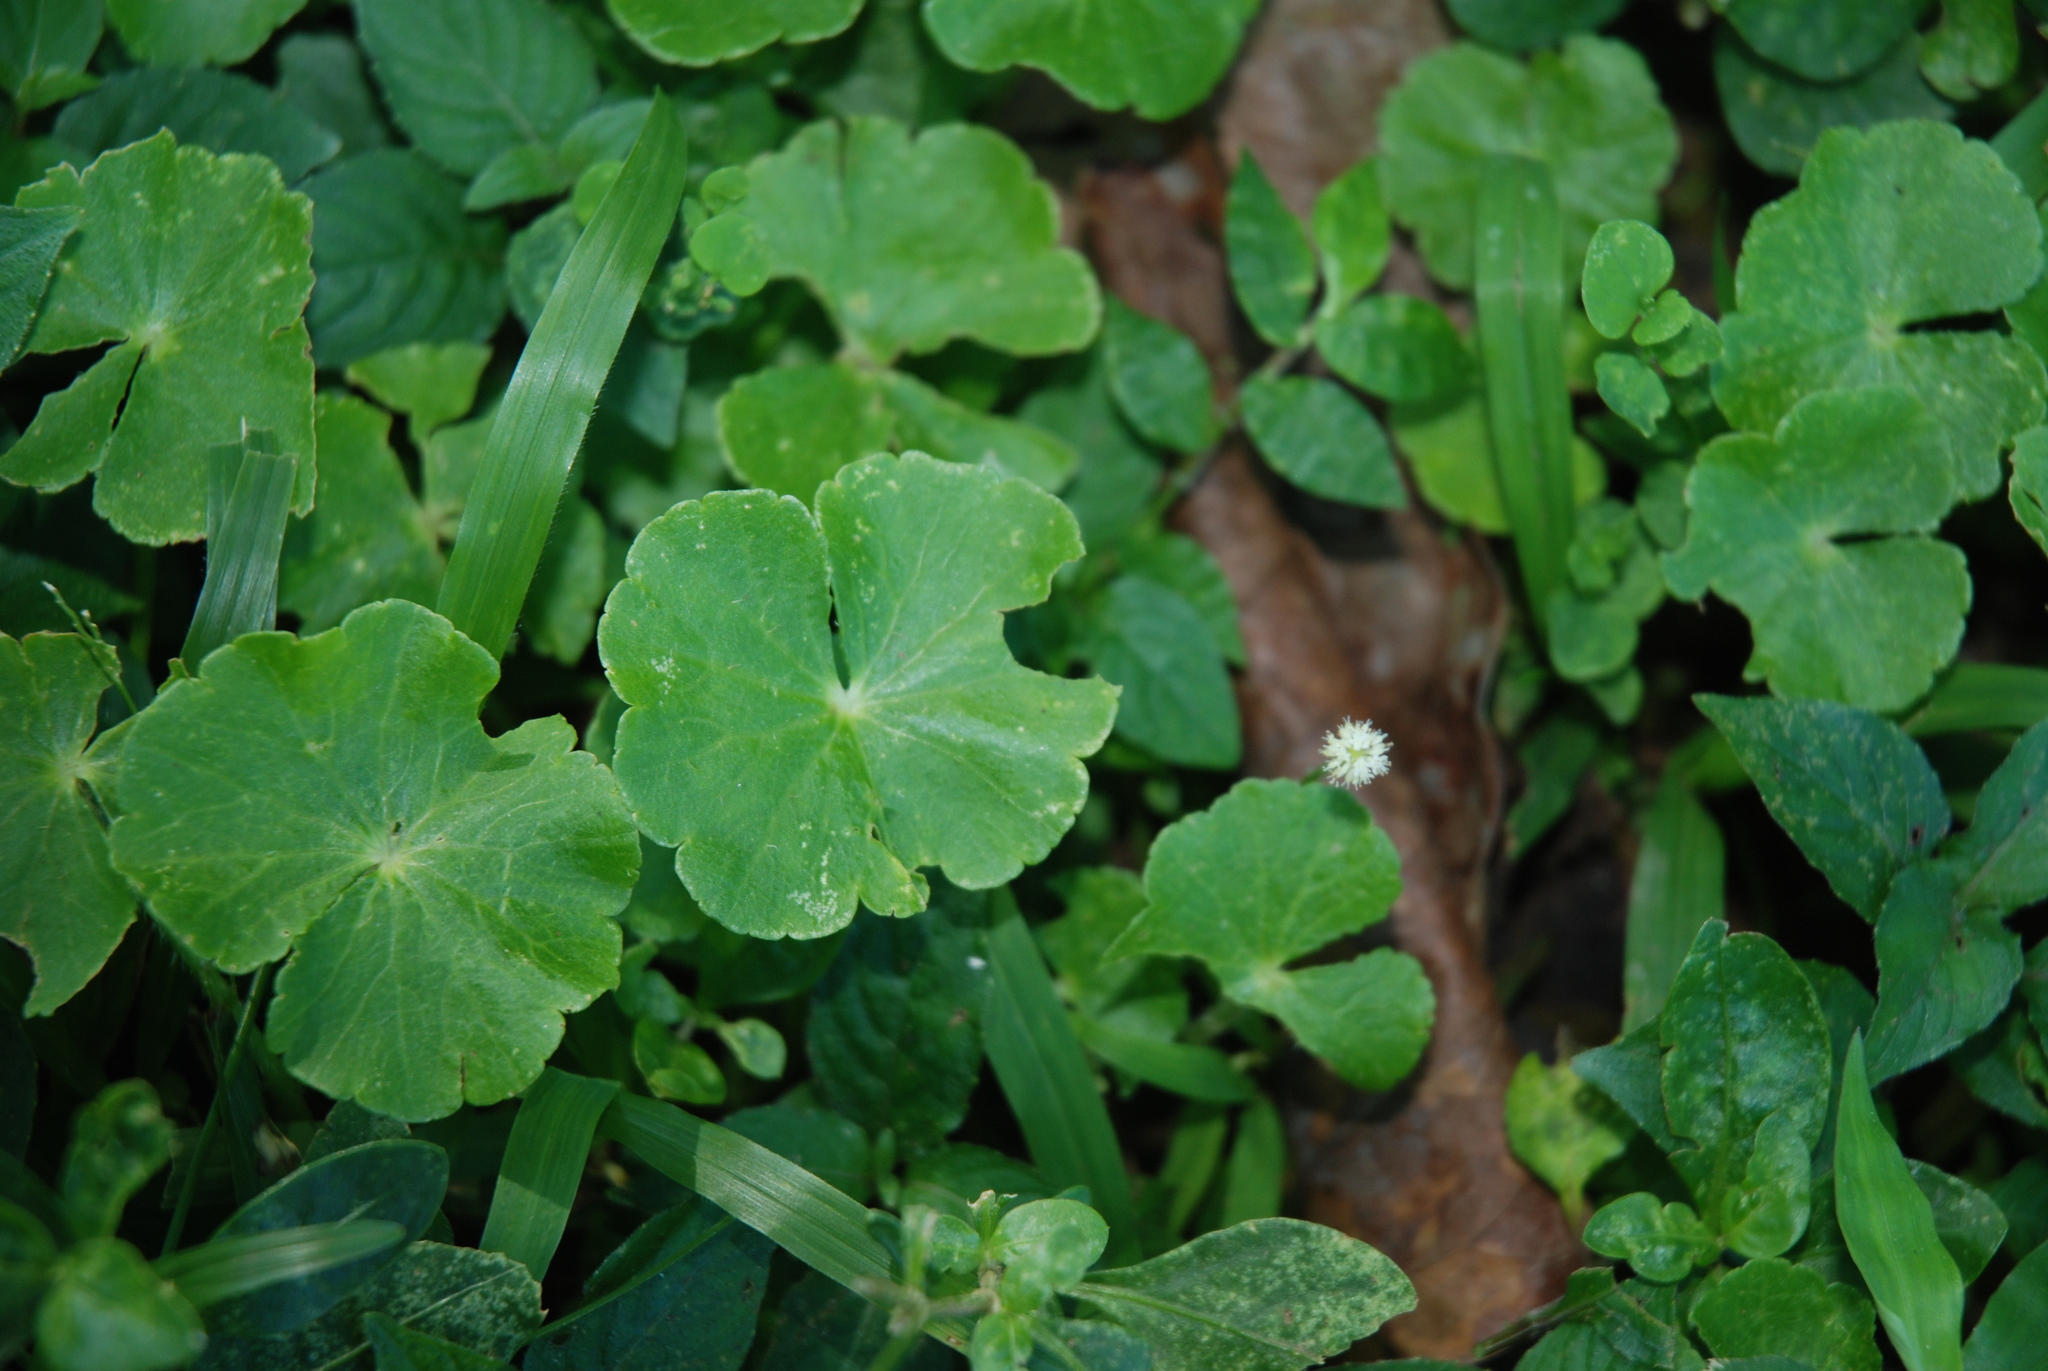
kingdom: Plantae
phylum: Tracheophyta
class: Magnoliopsida
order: Apiales
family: Araliaceae
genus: Hydrocotyle
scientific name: Hydrocotyle leucocephala
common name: Brazilian pennywort
